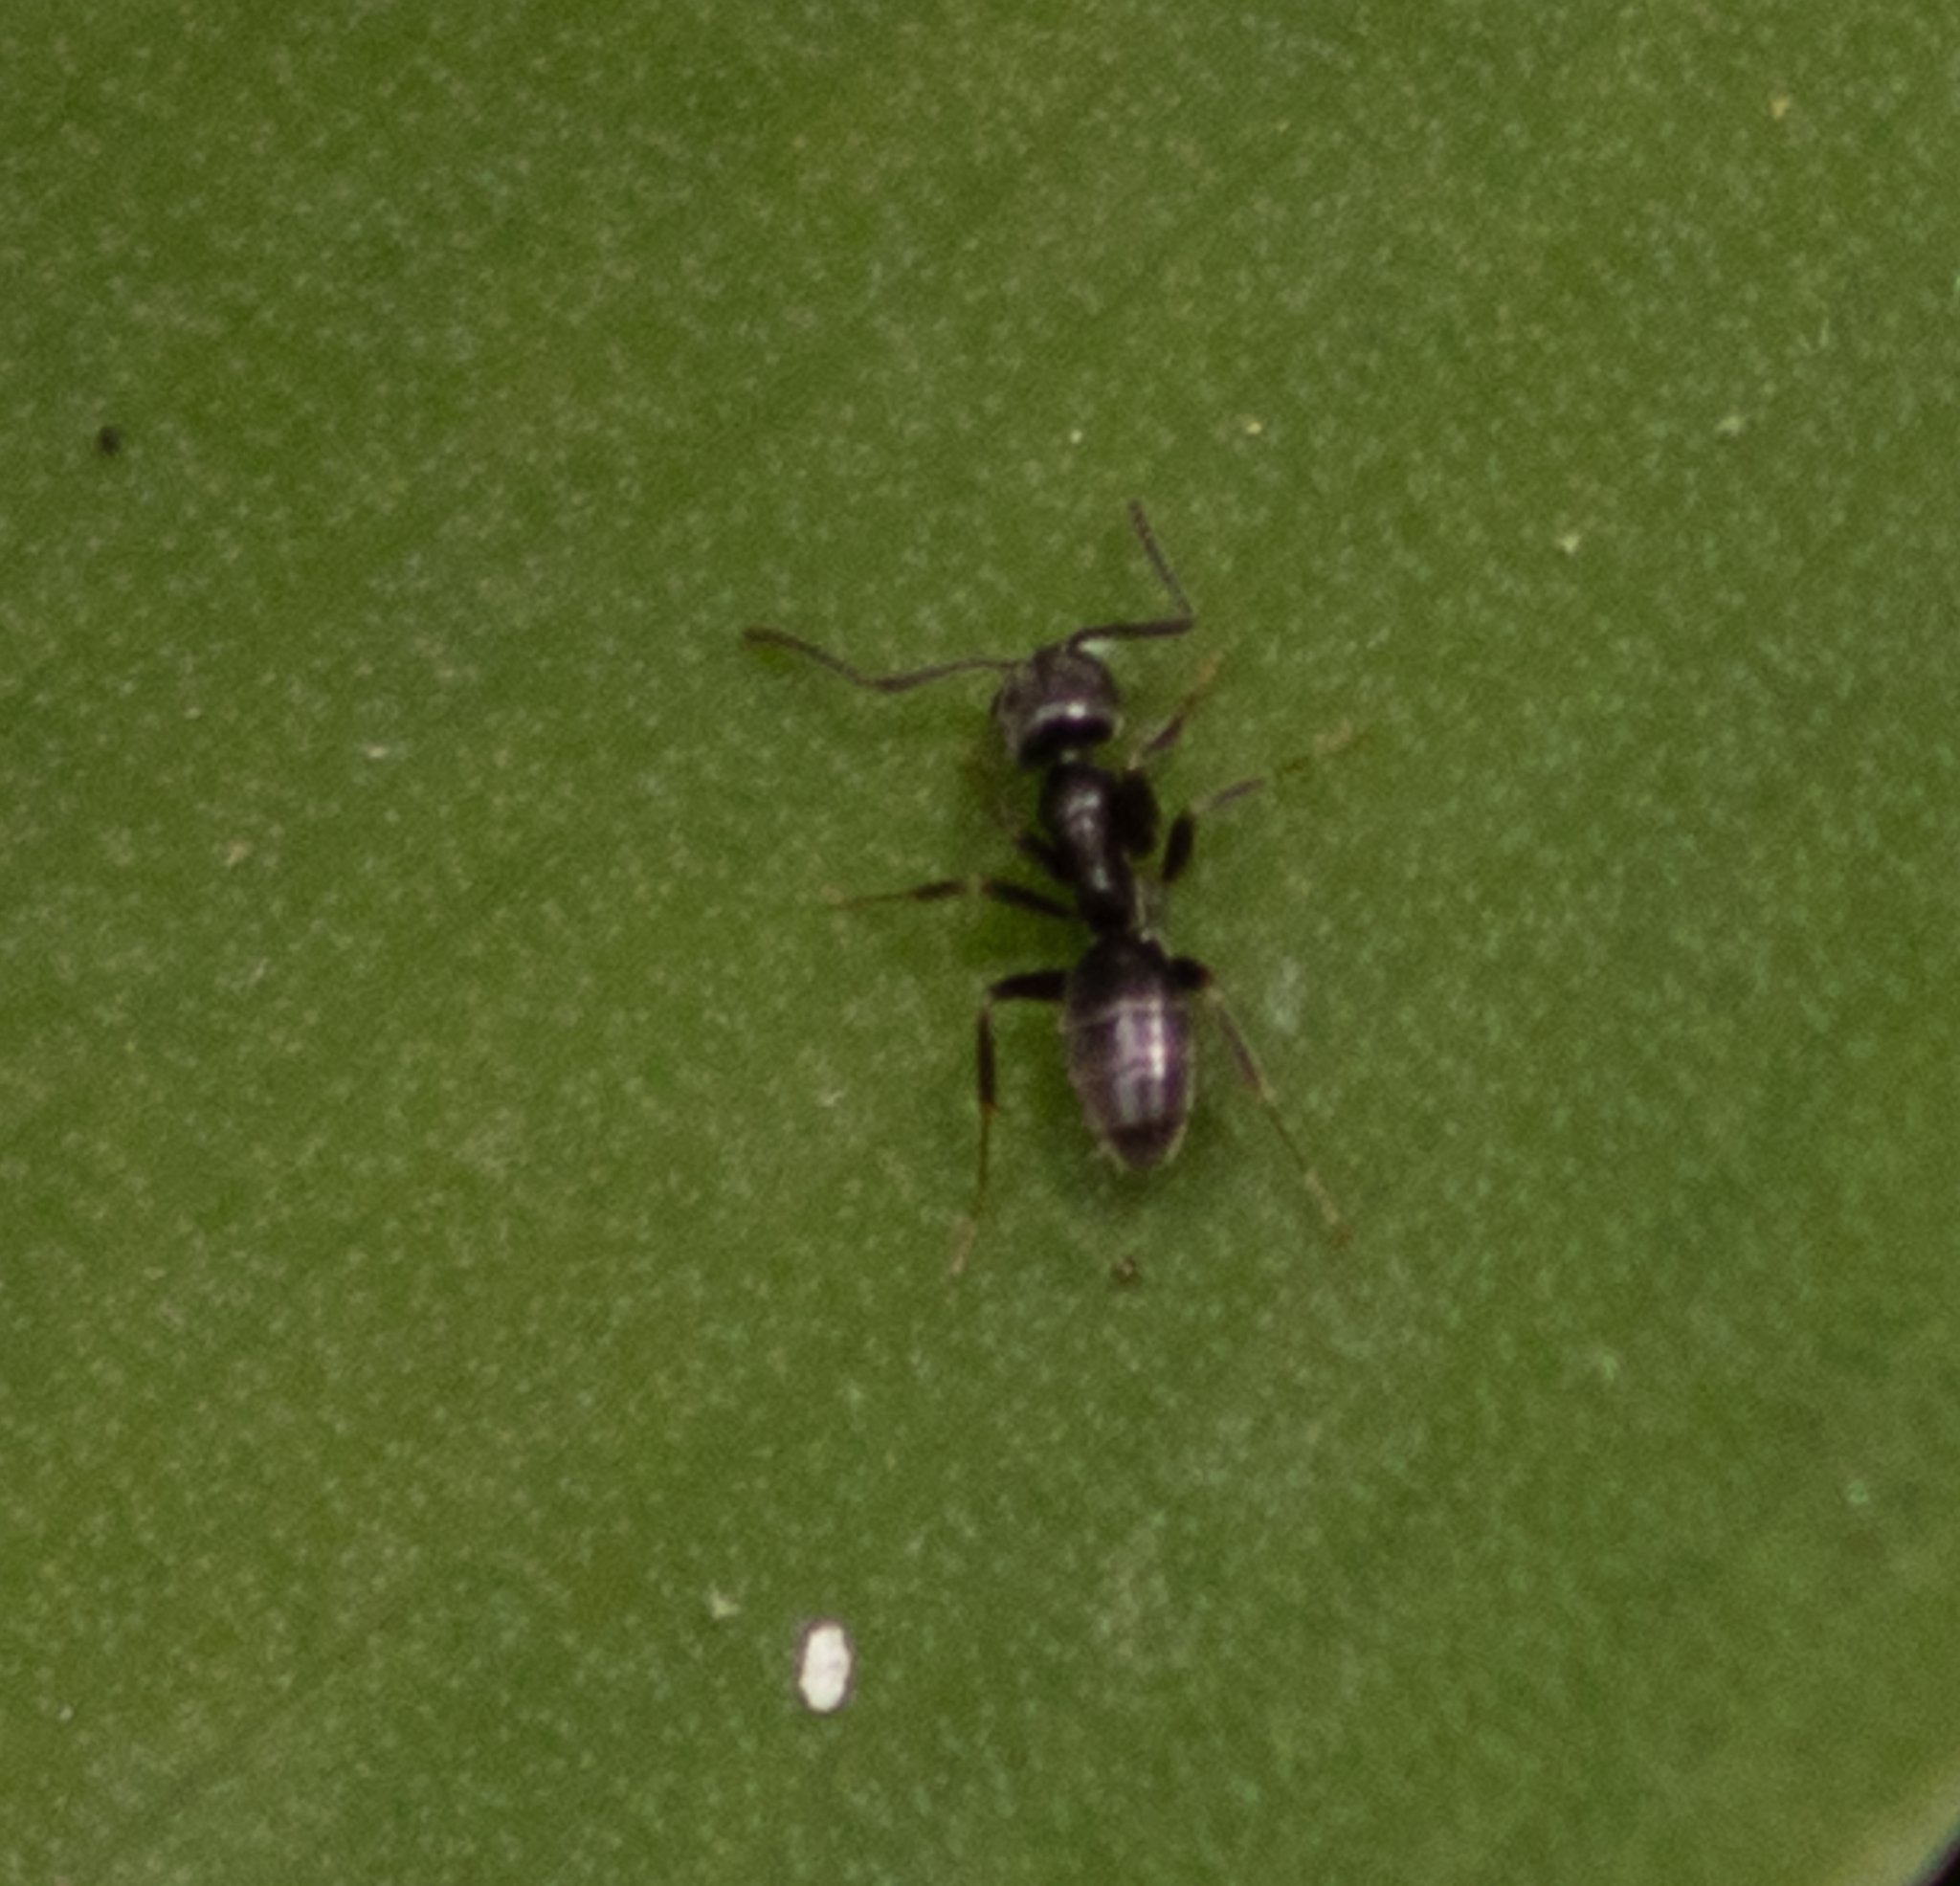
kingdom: Animalia
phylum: Arthropoda
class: Insecta
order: Hymenoptera
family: Formicidae
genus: Tapinoma
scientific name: Tapinoma sessile
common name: Odorous house ant
